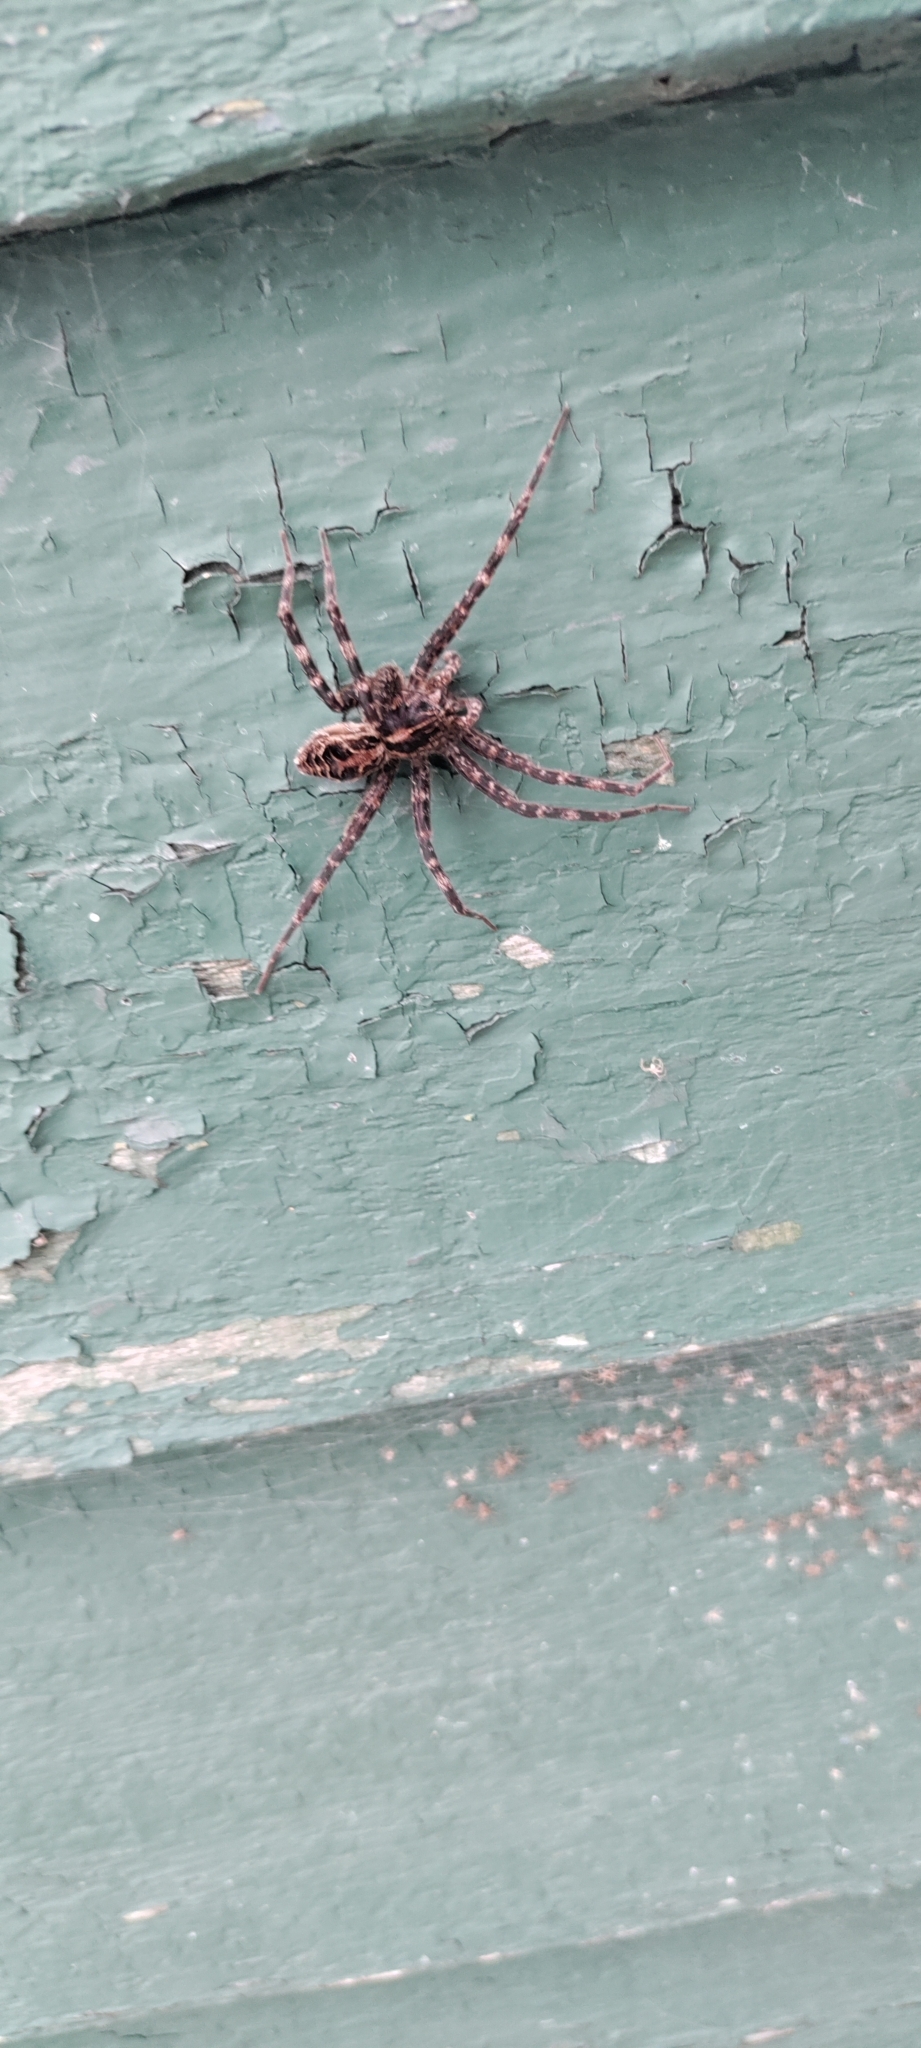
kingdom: Animalia
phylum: Arthropoda
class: Arachnida
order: Araneae
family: Pisauridae
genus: Dolomedes
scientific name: Dolomedes scriptus
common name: Striped fishing spider
